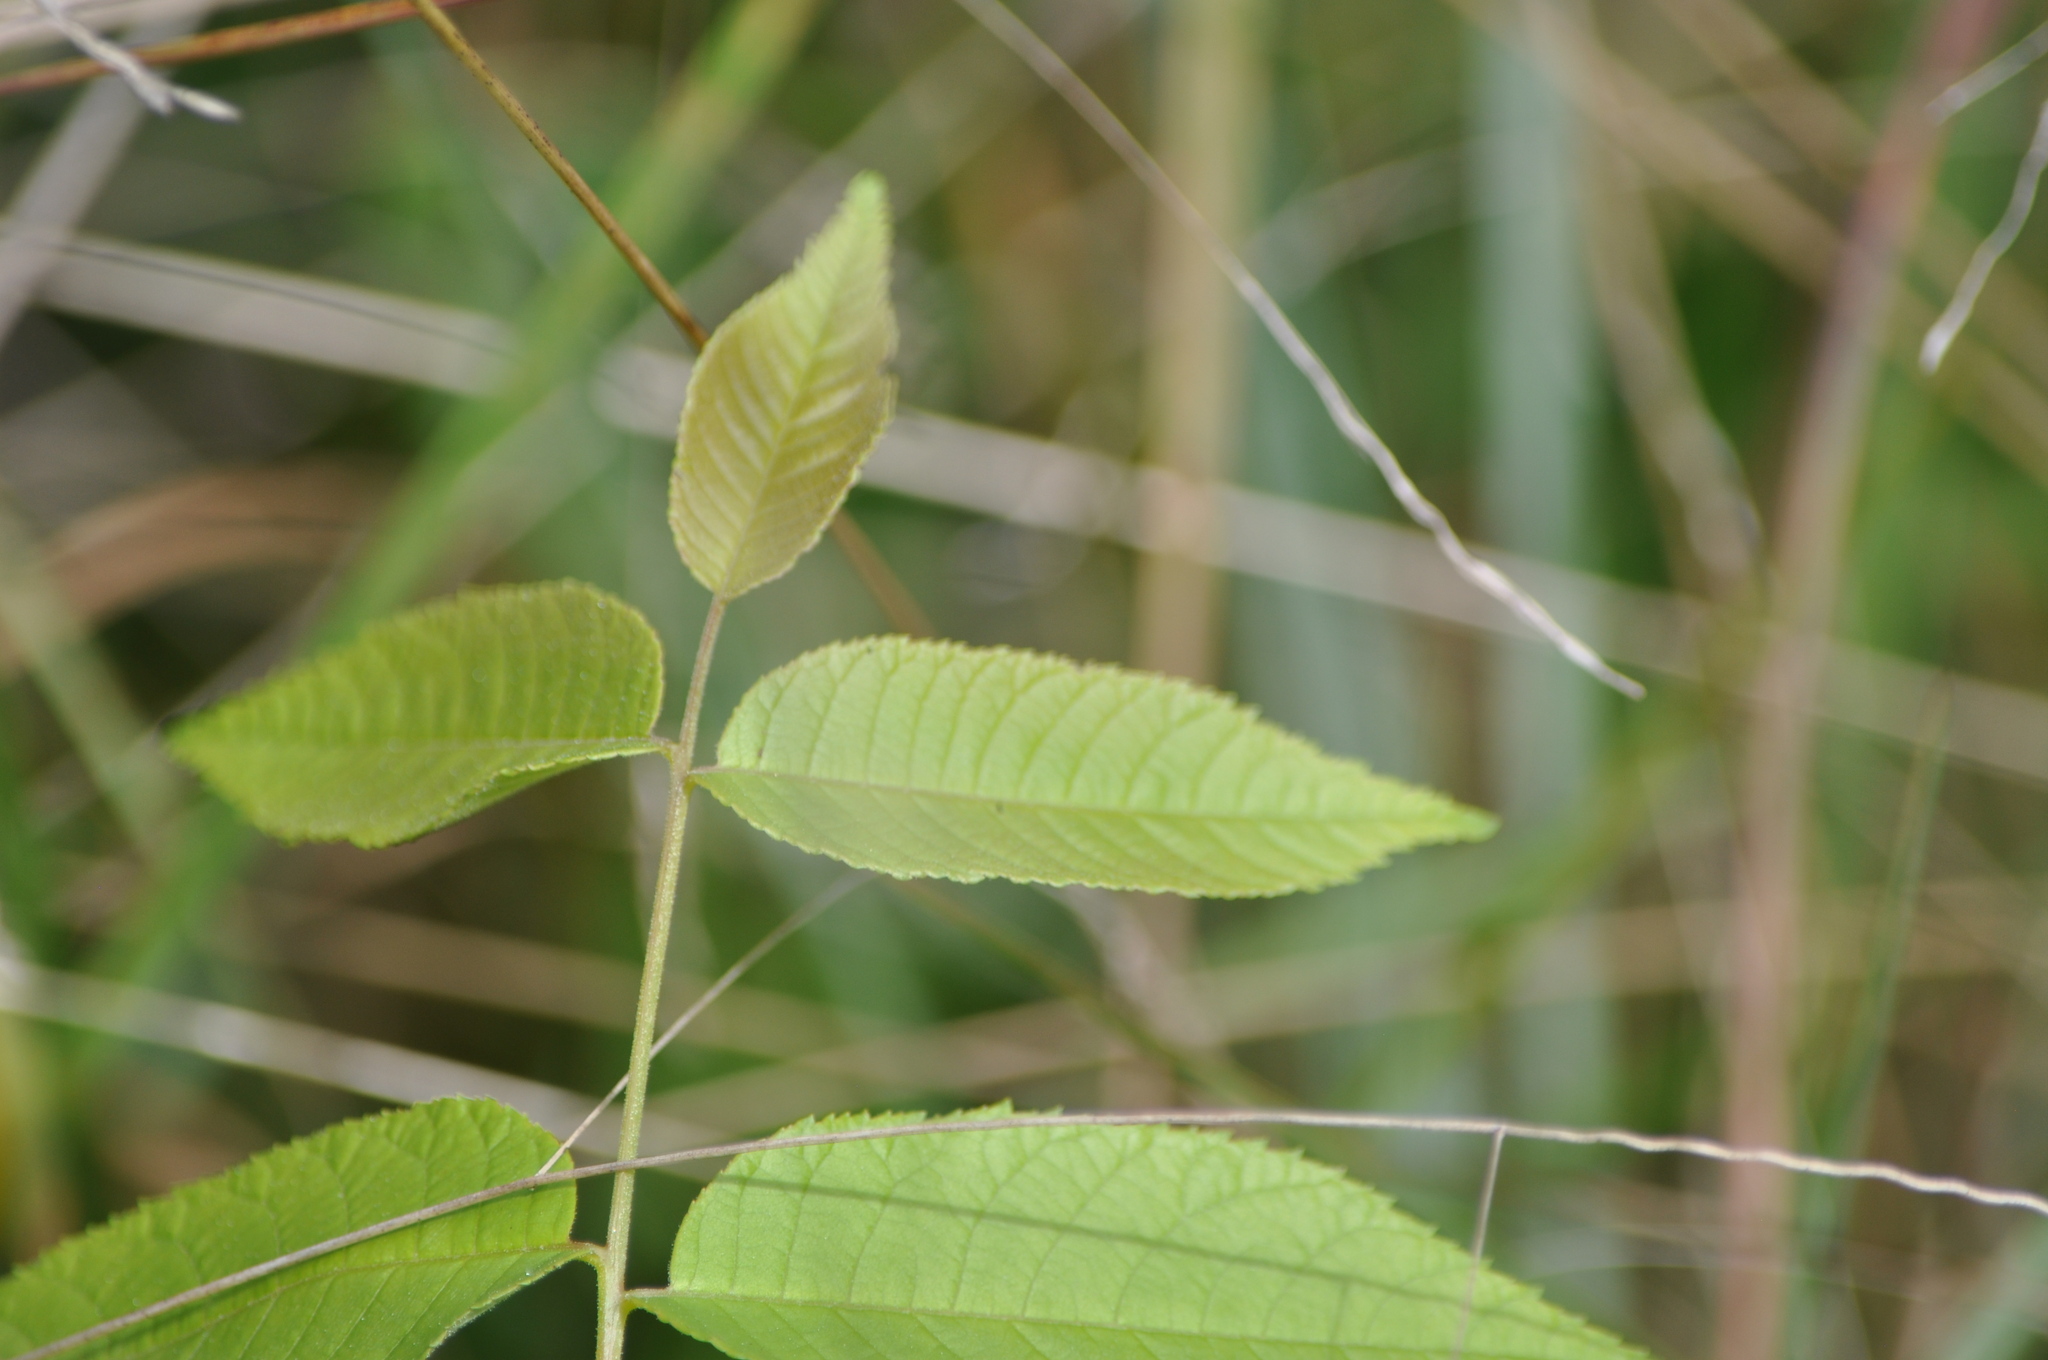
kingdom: Plantae
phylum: Tracheophyta
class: Magnoliopsida
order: Fagales
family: Juglandaceae
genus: Juglans
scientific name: Juglans nigra
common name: Black walnut
